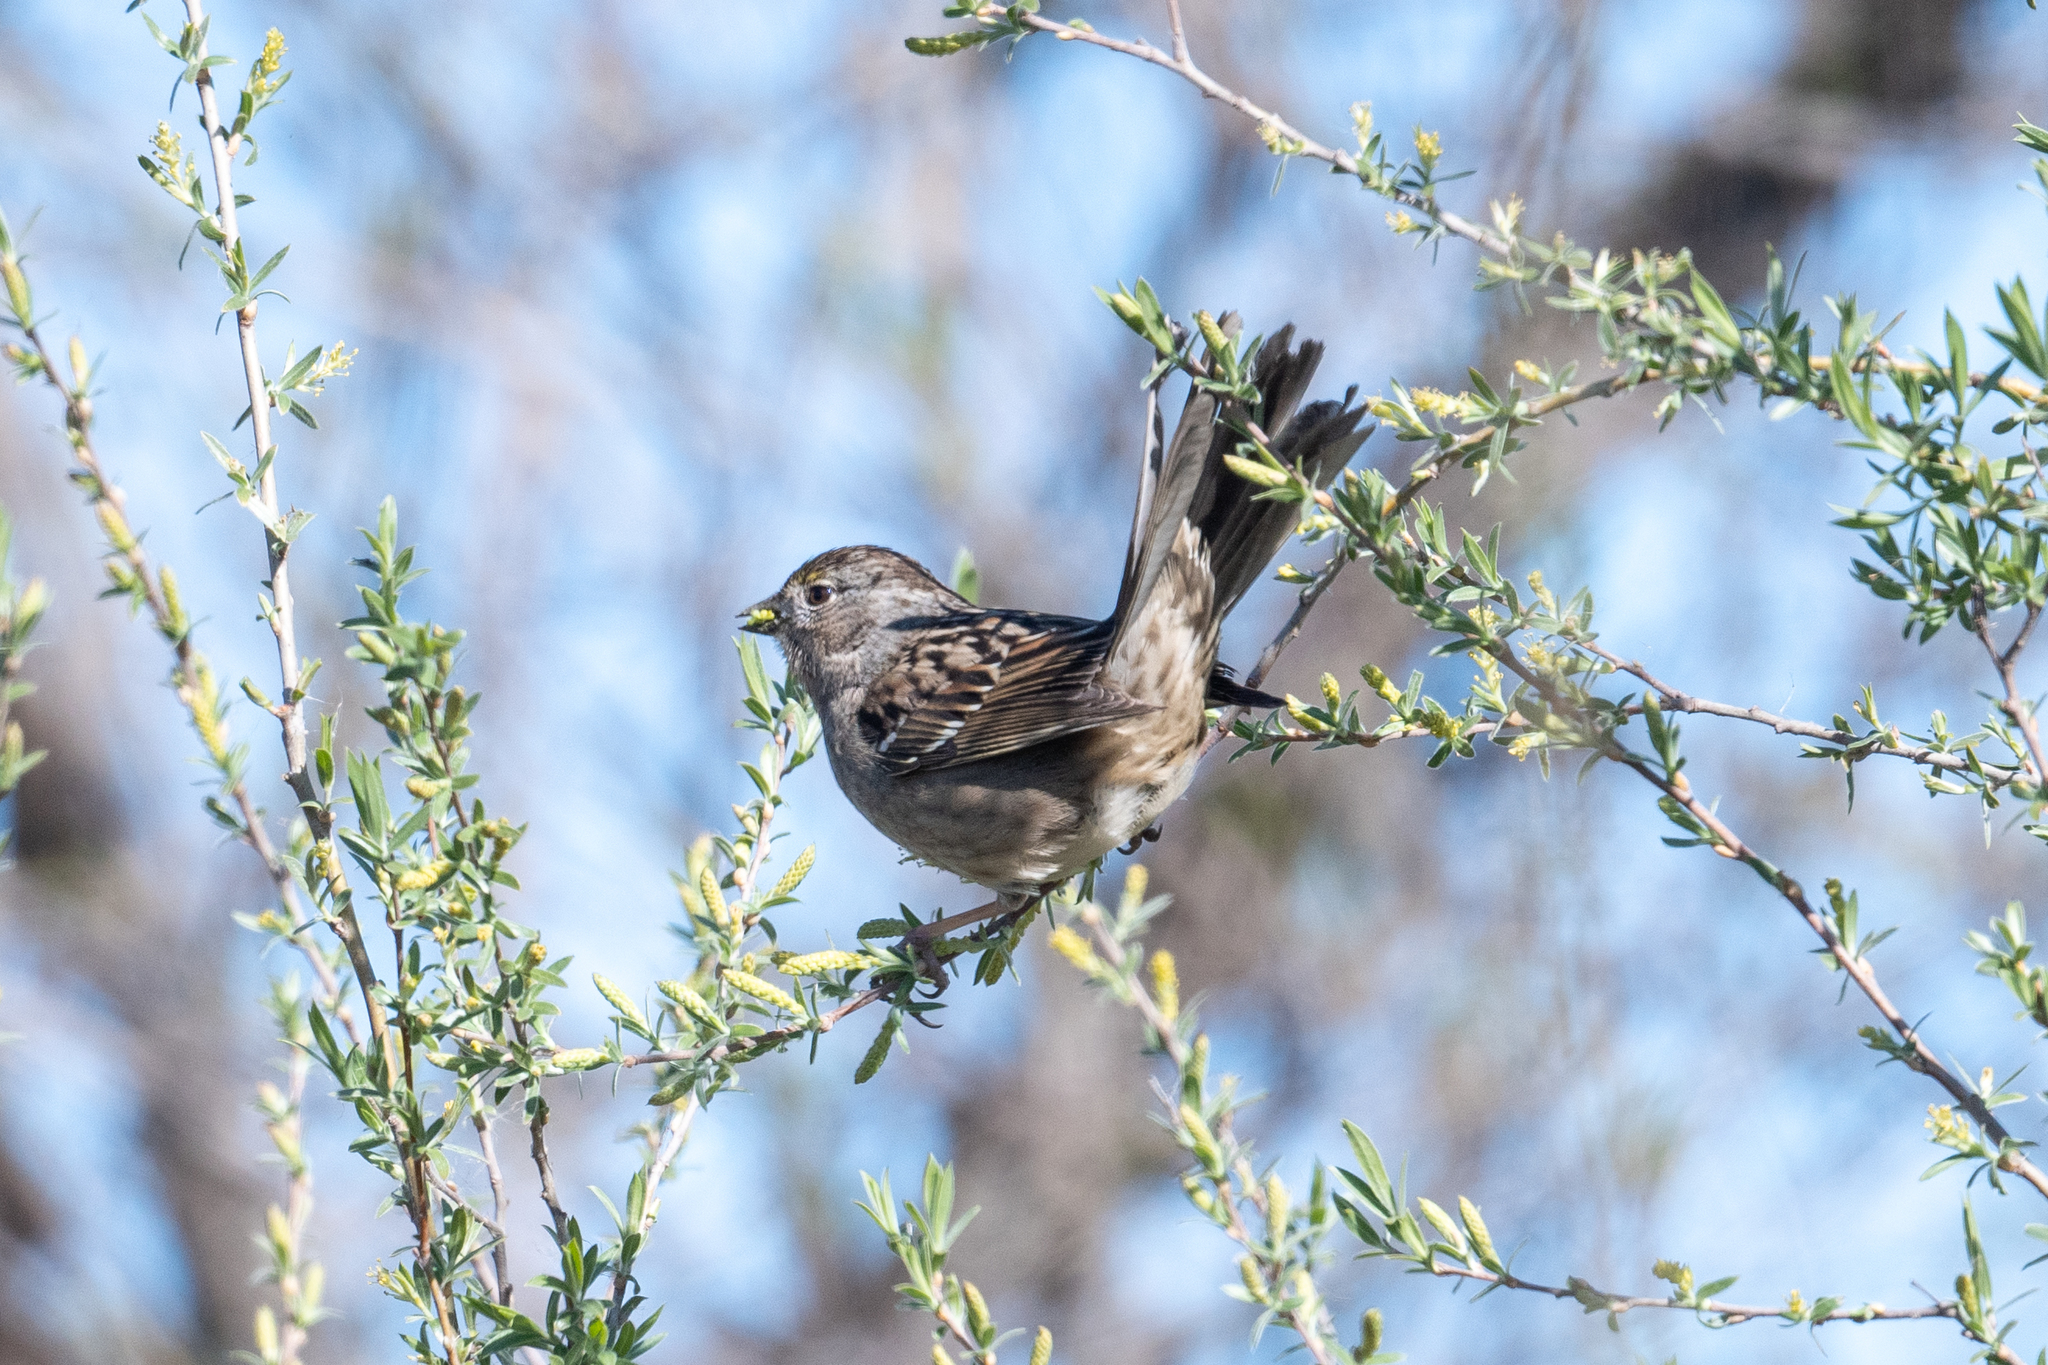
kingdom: Animalia
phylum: Chordata
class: Aves
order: Passeriformes
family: Passerellidae
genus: Zonotrichia
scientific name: Zonotrichia atricapilla
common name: Golden-crowned sparrow
